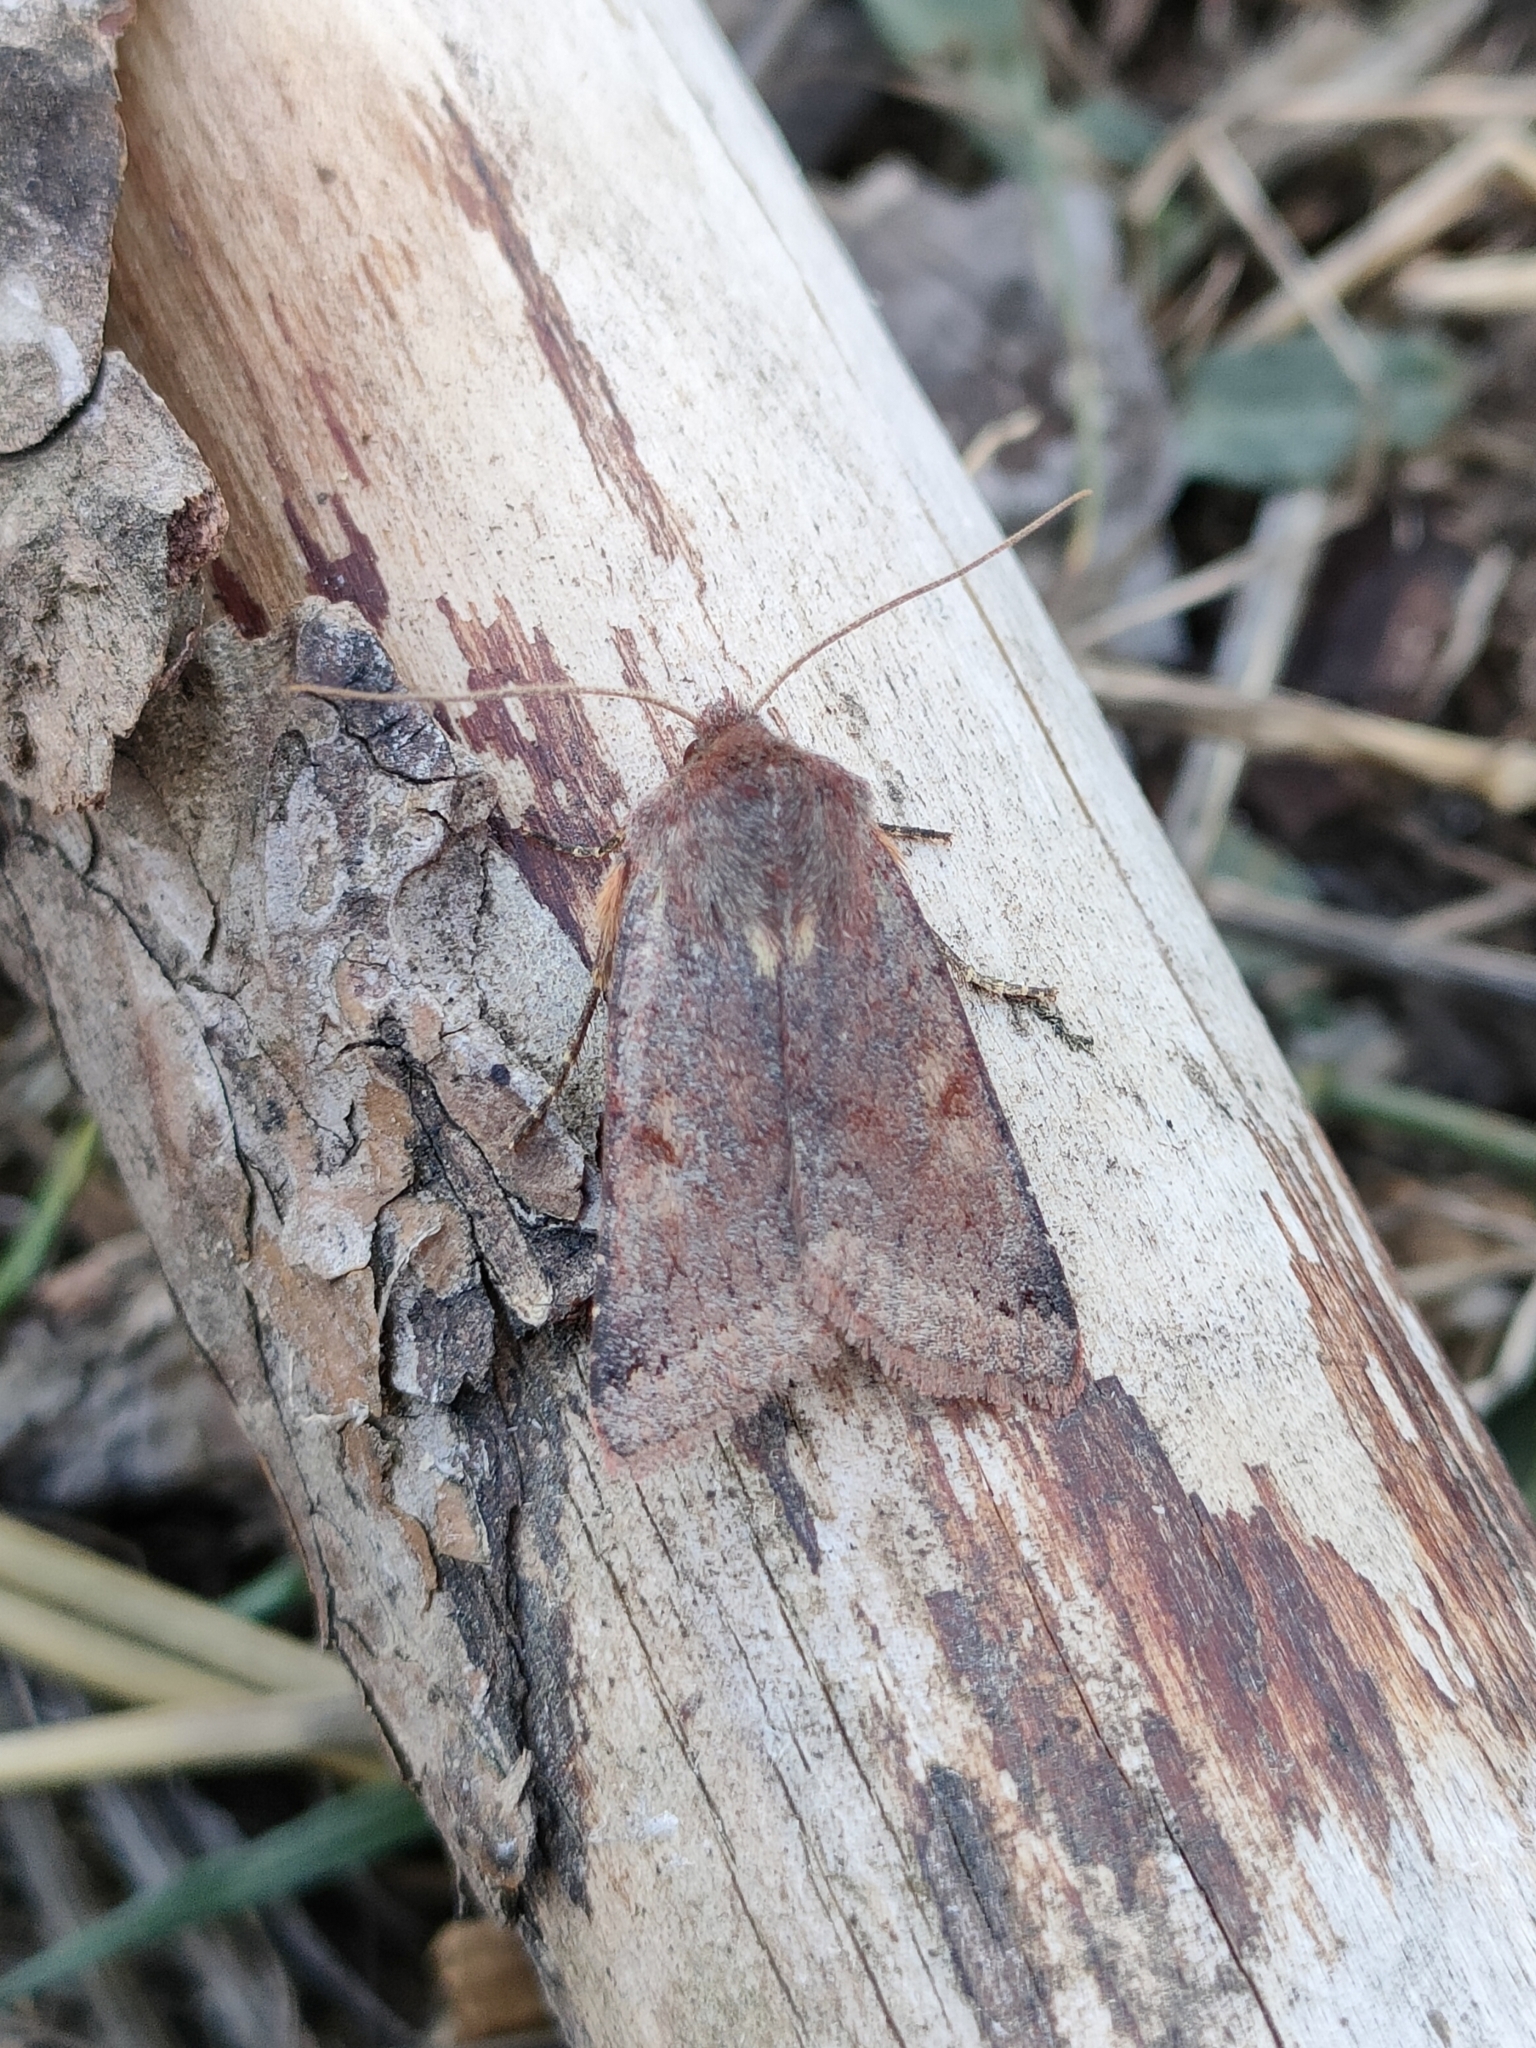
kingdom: Animalia
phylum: Arthropoda
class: Insecta
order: Lepidoptera
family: Noctuidae
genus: Agrochola
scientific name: Agrochola haematidea
